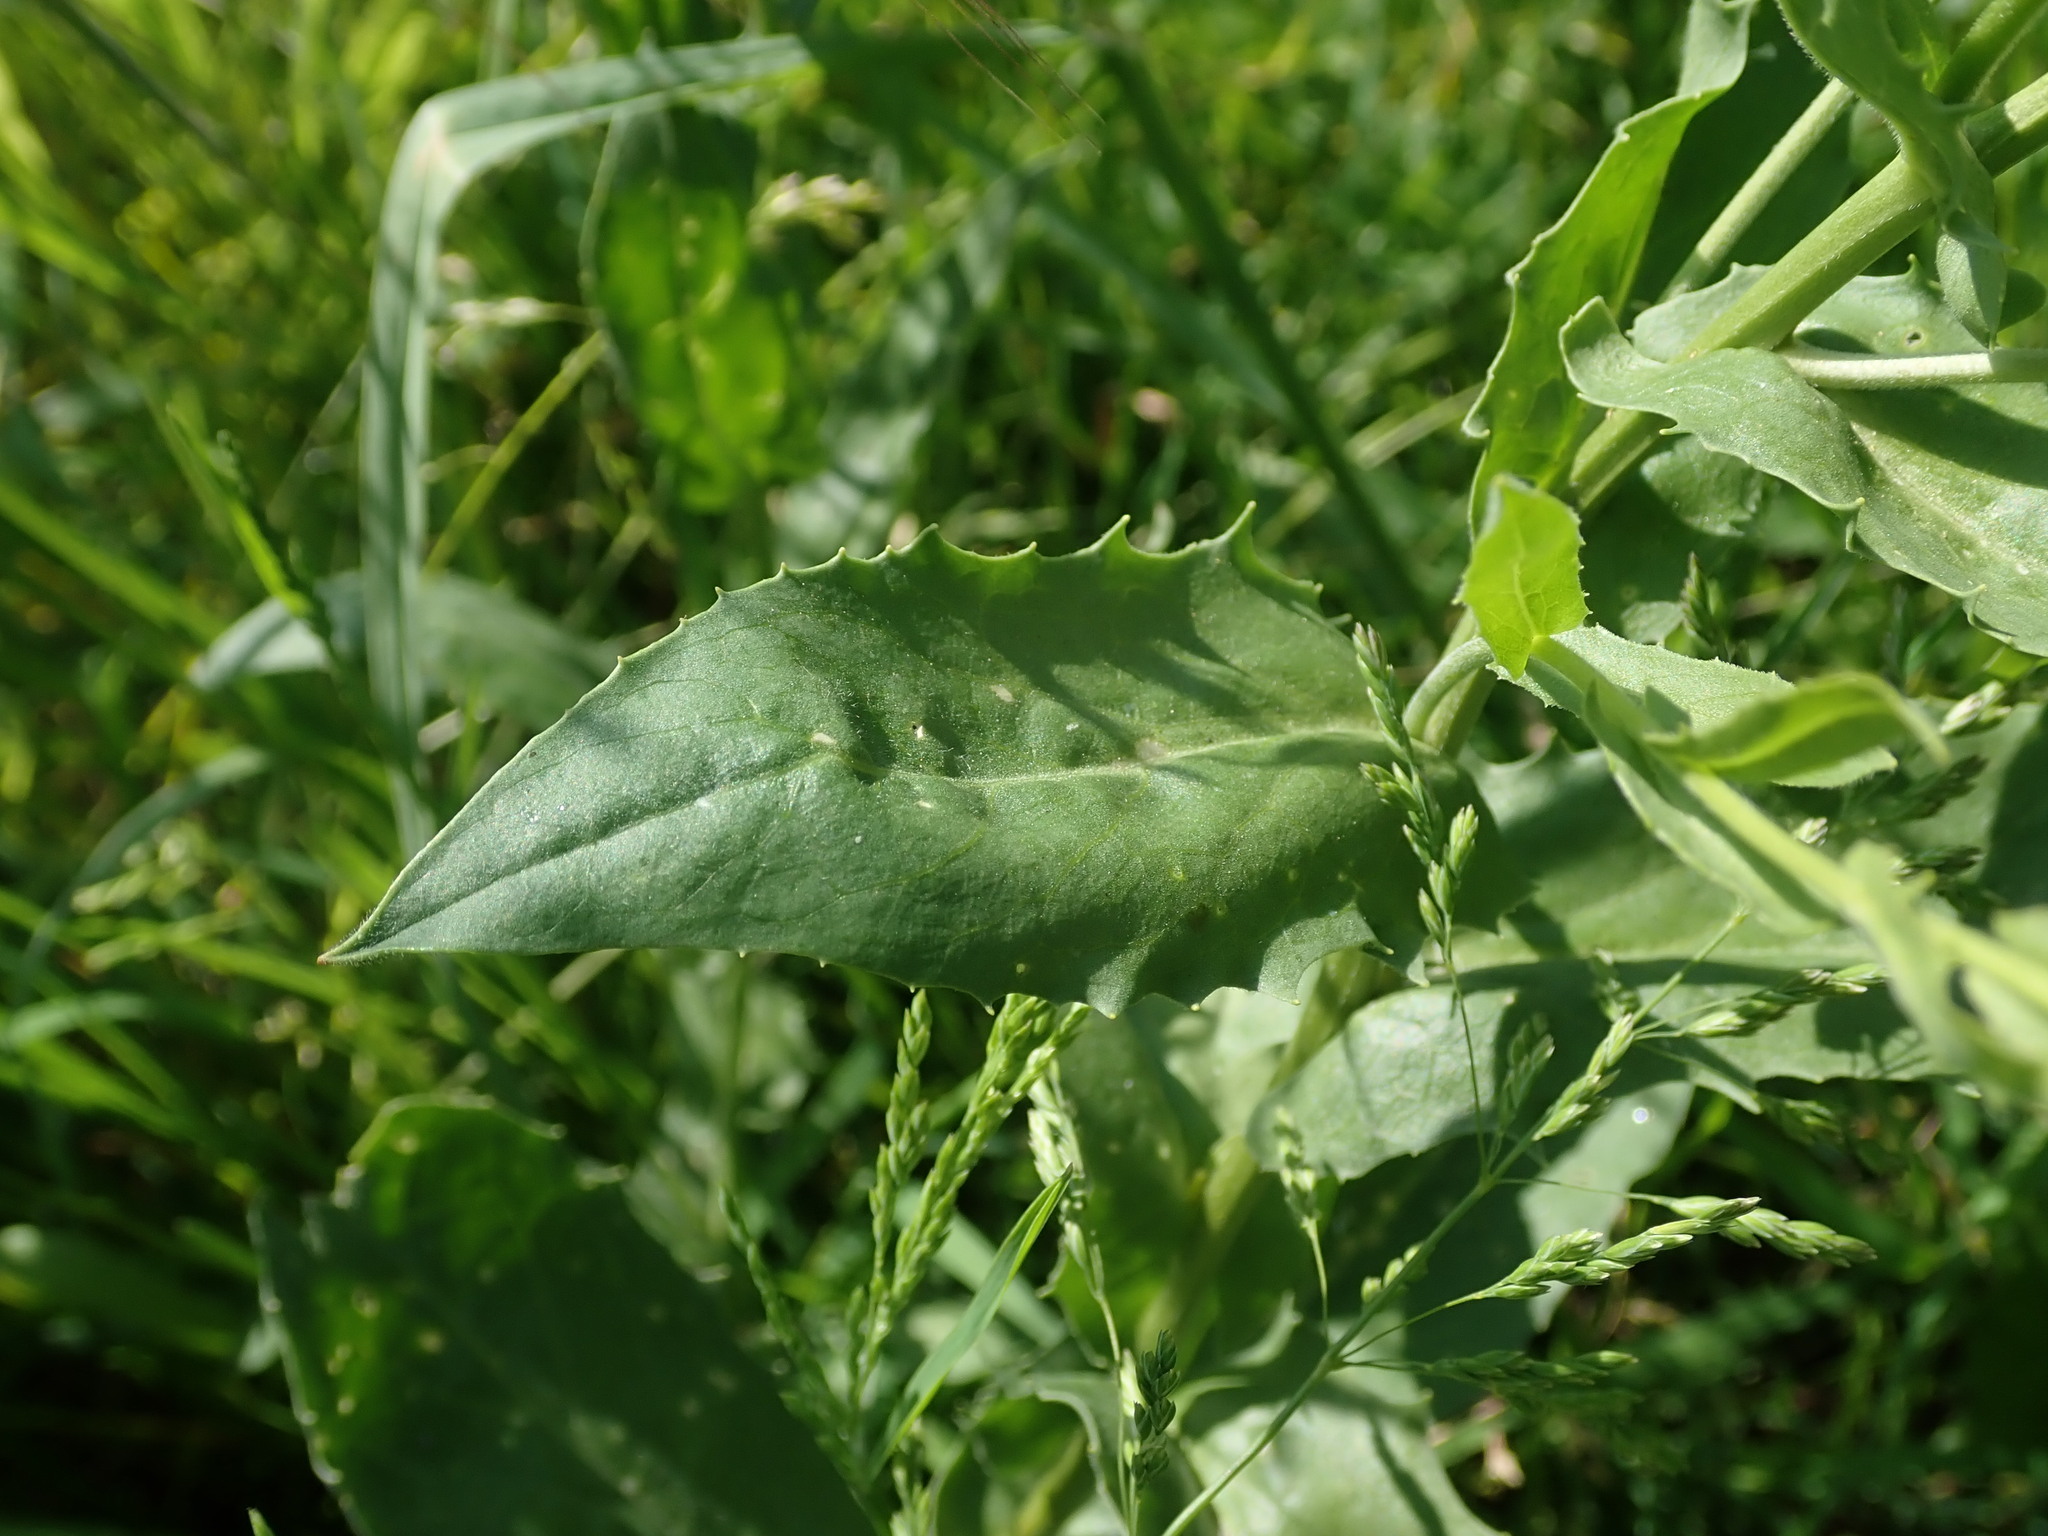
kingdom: Plantae
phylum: Tracheophyta
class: Magnoliopsida
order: Brassicales
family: Brassicaceae
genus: Lepidium
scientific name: Lepidium draba
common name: Hoary cress
